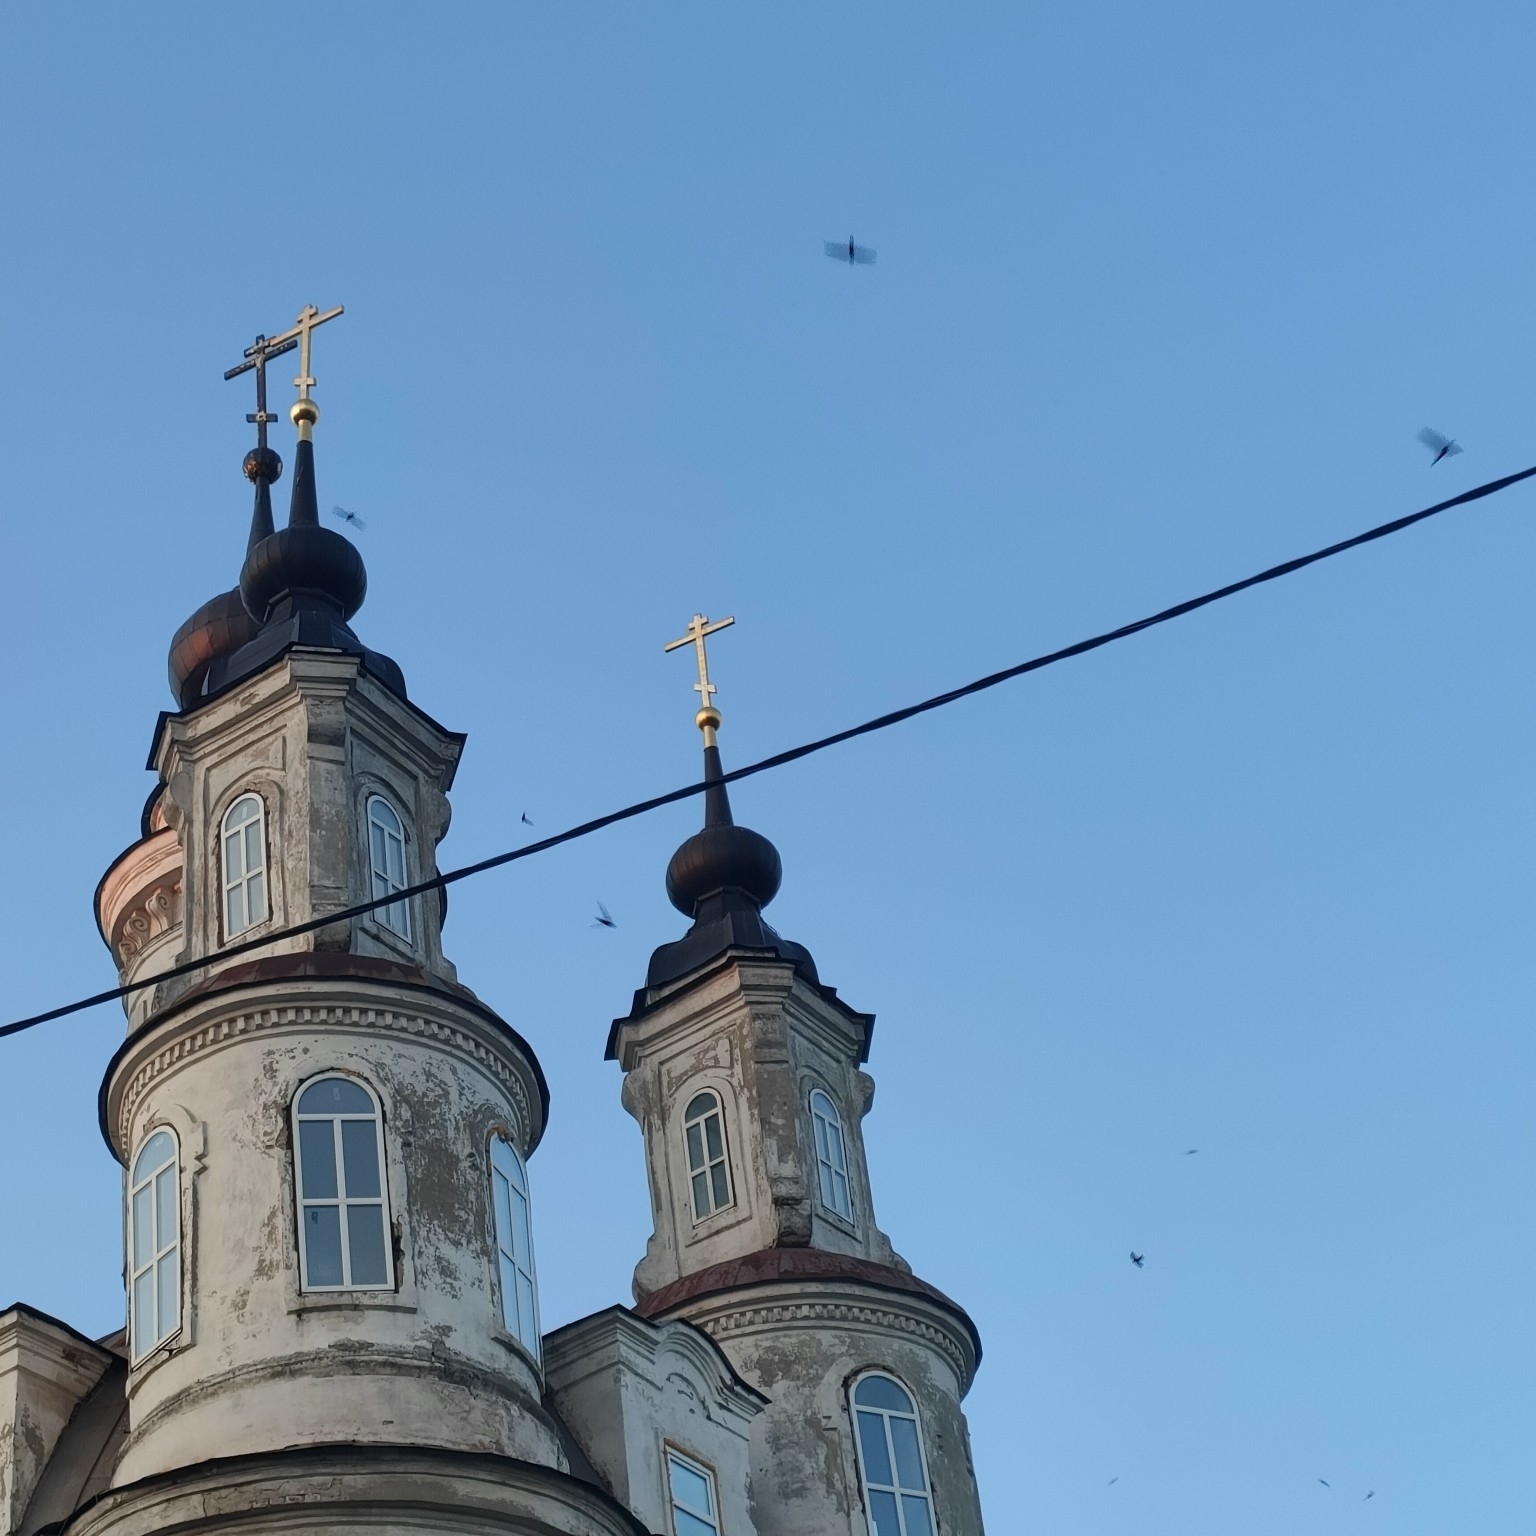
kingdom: Animalia
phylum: Chordata
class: Aves
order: Apodiformes
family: Apodidae
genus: Apus
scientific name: Apus apus
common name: Common swift
